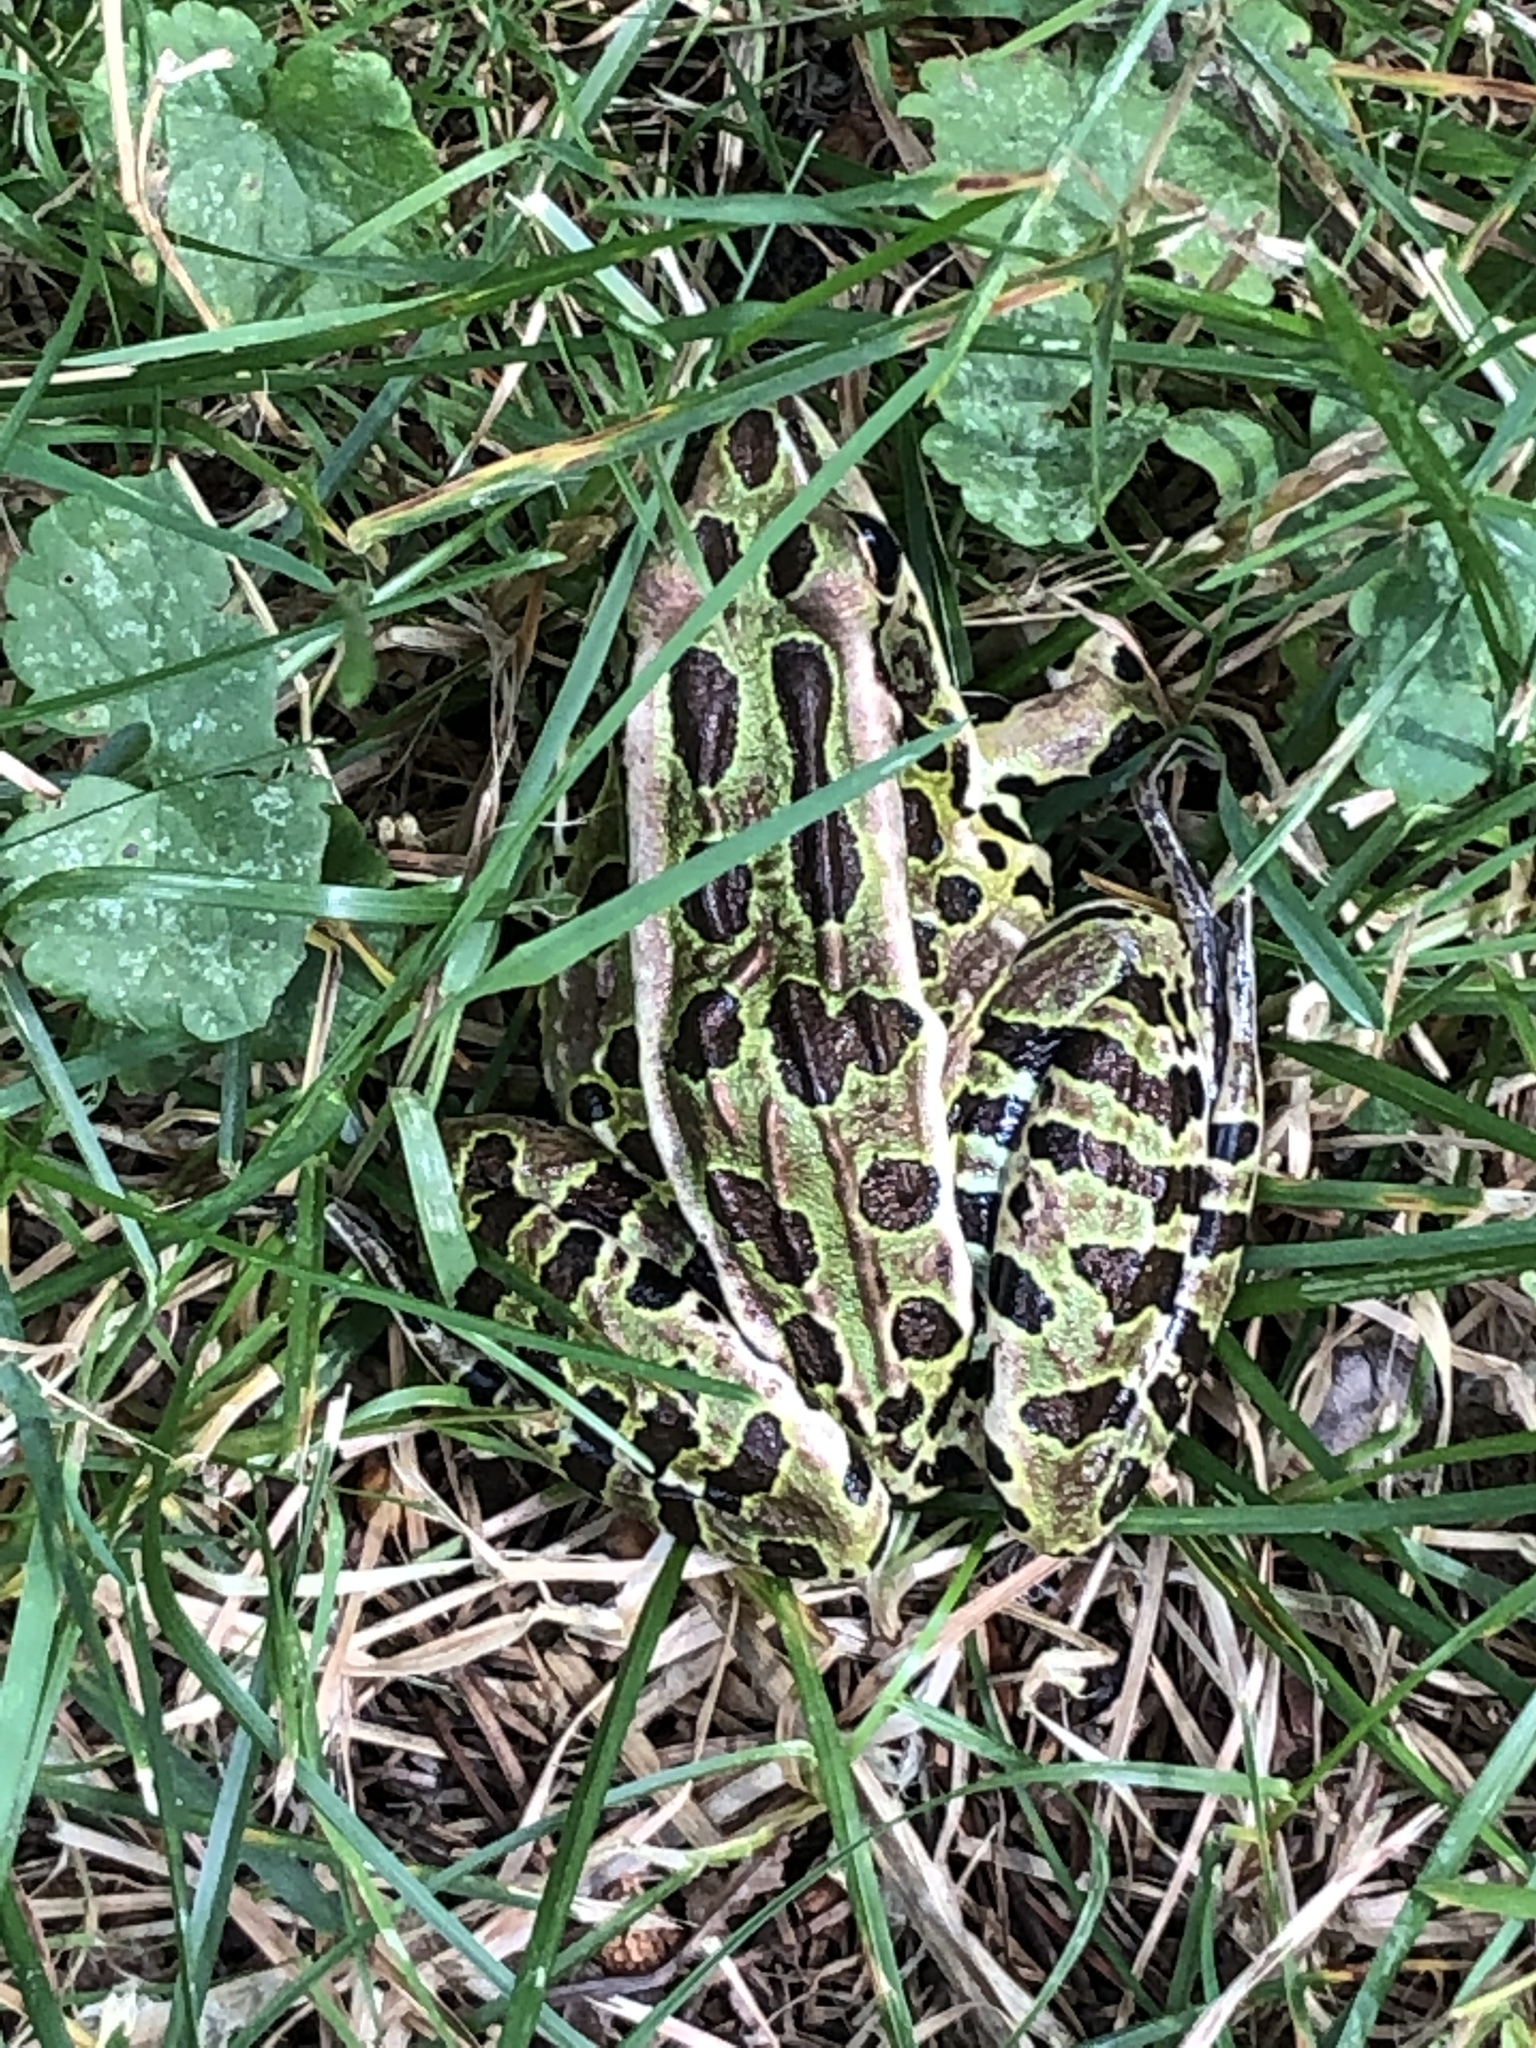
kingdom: Animalia
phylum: Chordata
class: Amphibia
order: Anura
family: Ranidae
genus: Lithobates
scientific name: Lithobates pipiens
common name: Northern leopard frog
